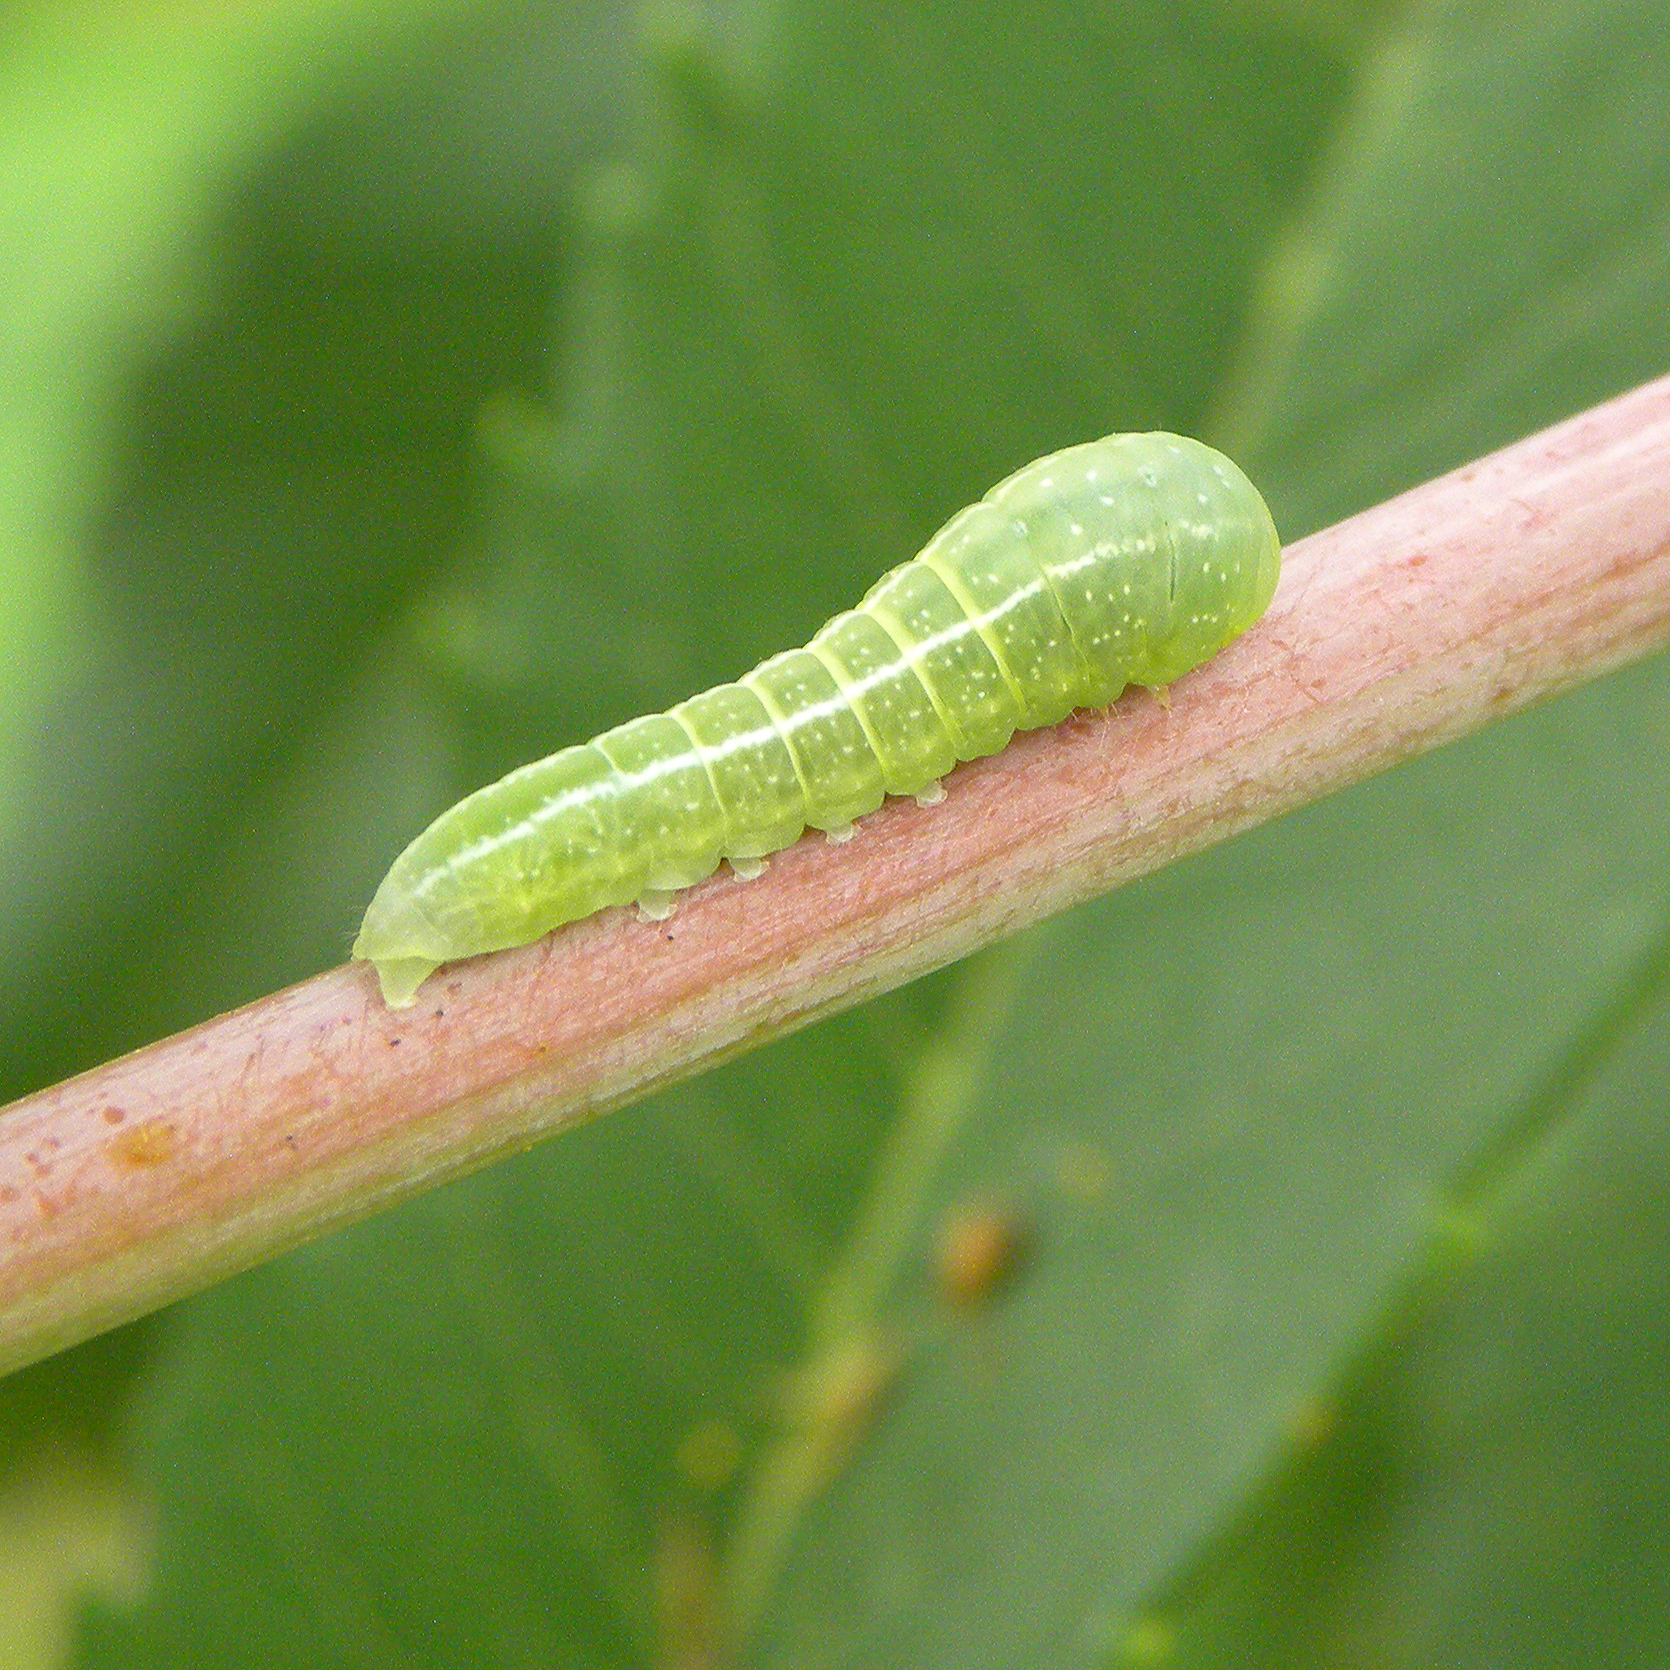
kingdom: Animalia
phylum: Arthropoda
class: Insecta
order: Lepidoptera
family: Euteliidae
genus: Marathyssa
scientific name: Marathyssa inficita
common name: Dark marathyssa moth
